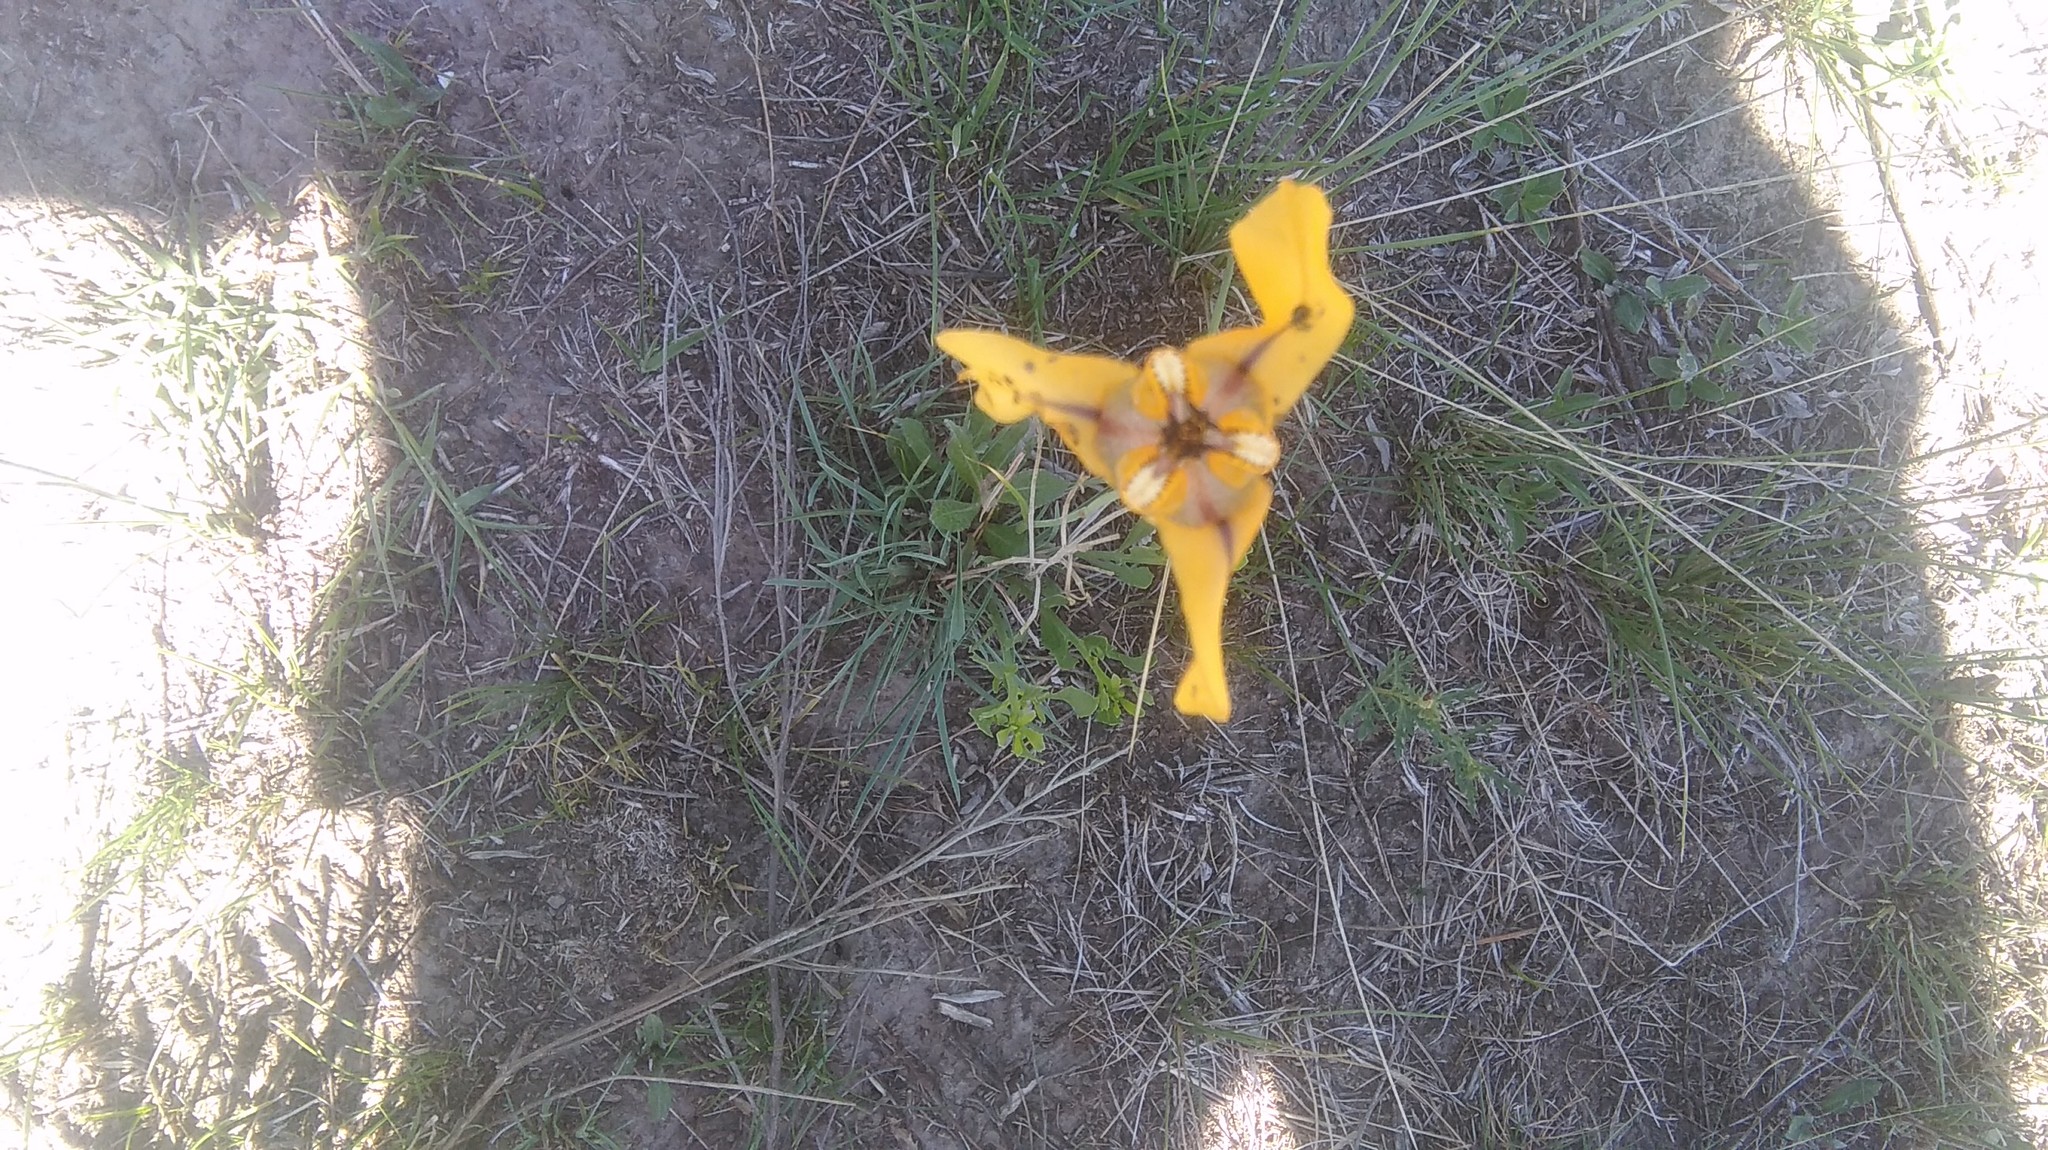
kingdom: Plantae
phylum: Tracheophyta
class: Liliopsida
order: Asparagales
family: Iridaceae
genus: Cypella
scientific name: Cypella herbertii
